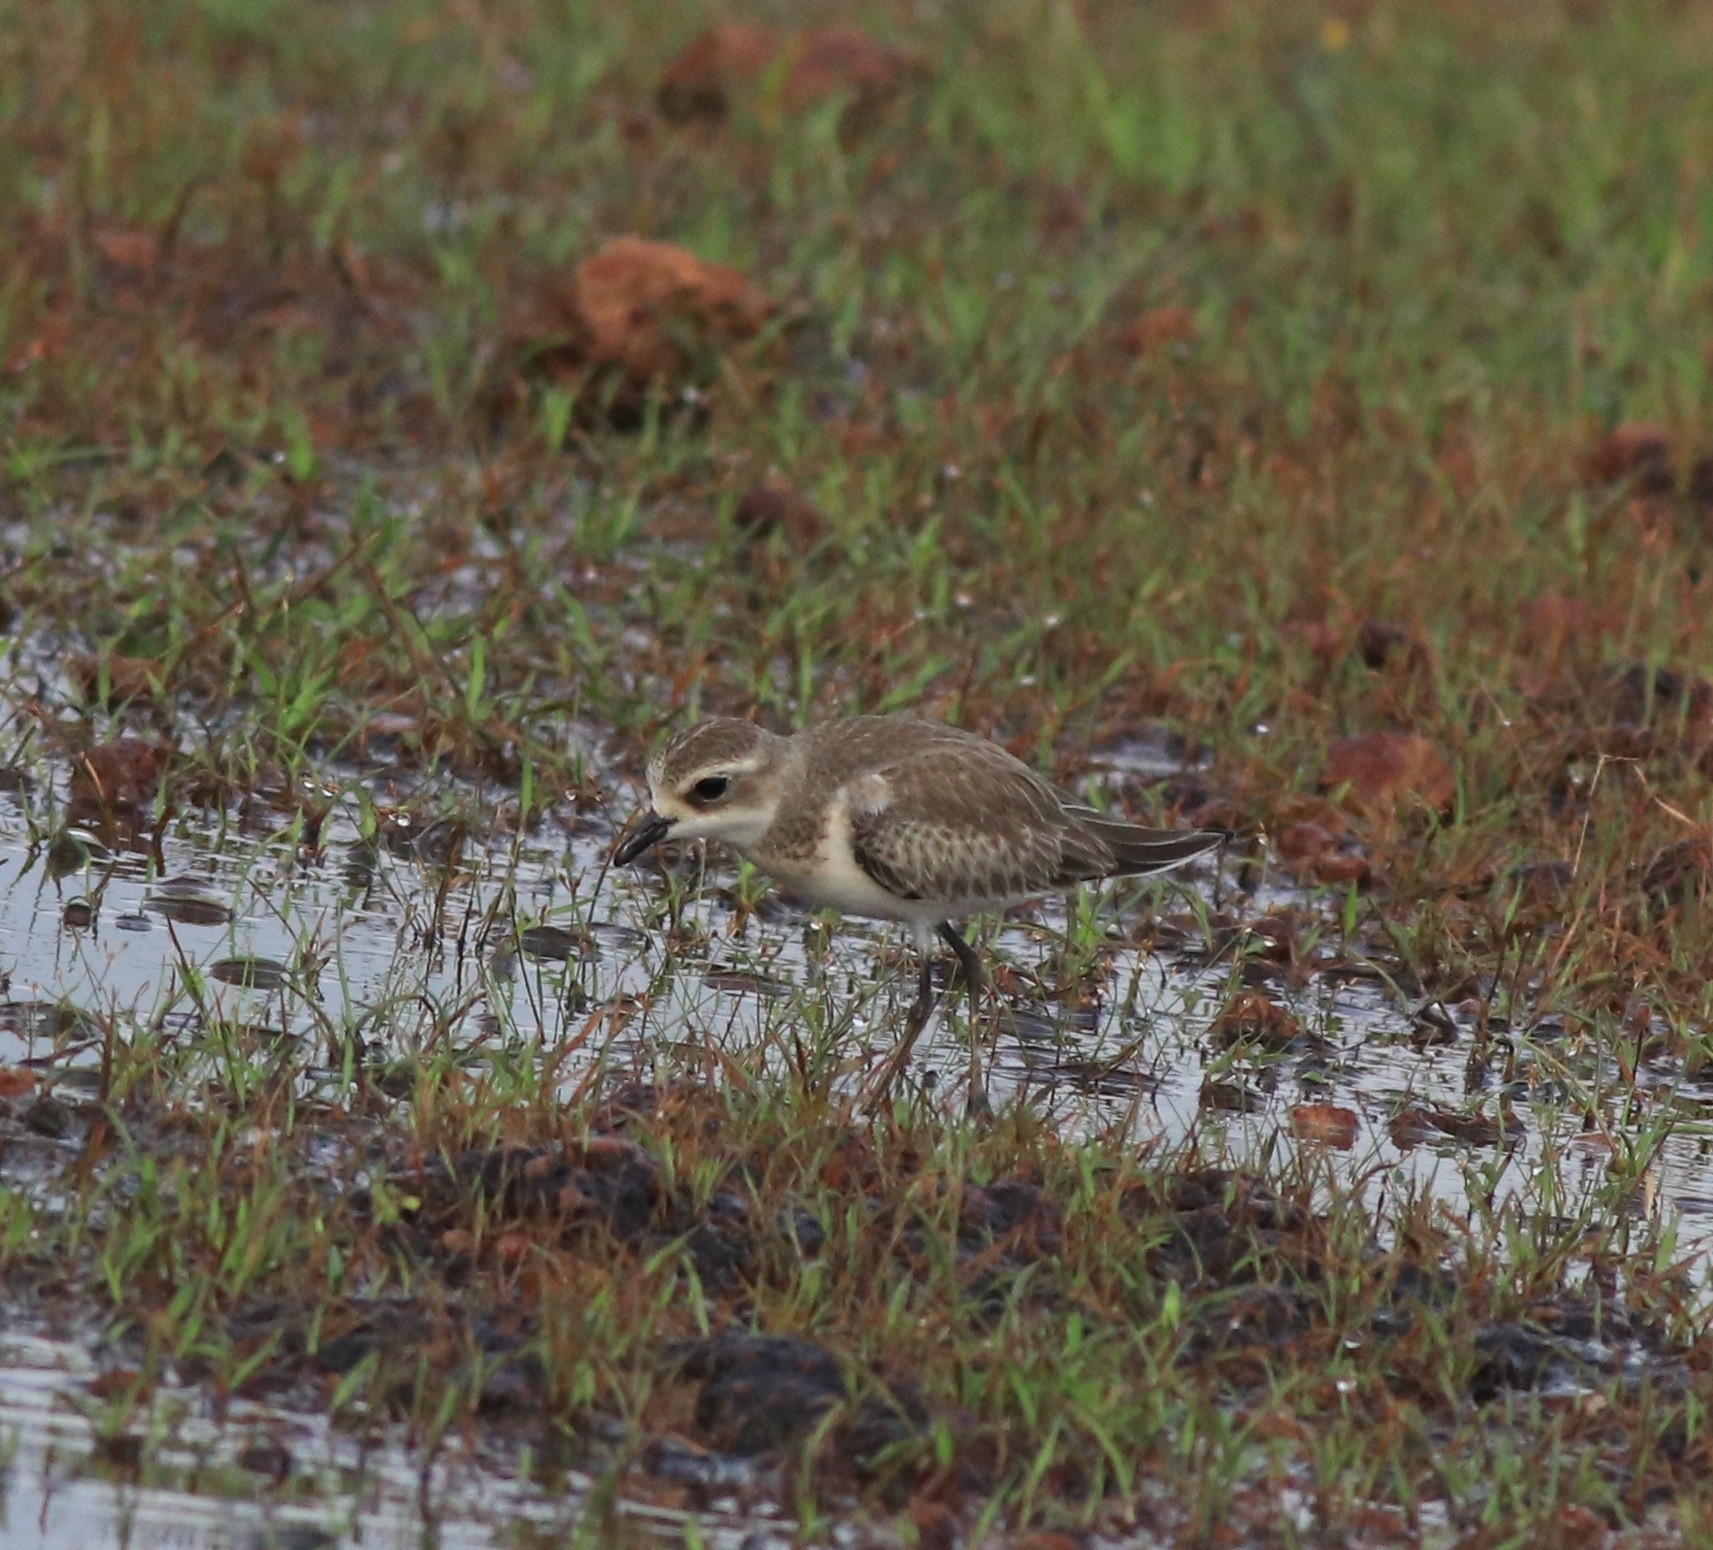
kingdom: Animalia
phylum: Chordata
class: Aves
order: Charadriiformes
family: Charadriidae
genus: Anarhynchus
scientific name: Anarhynchus
